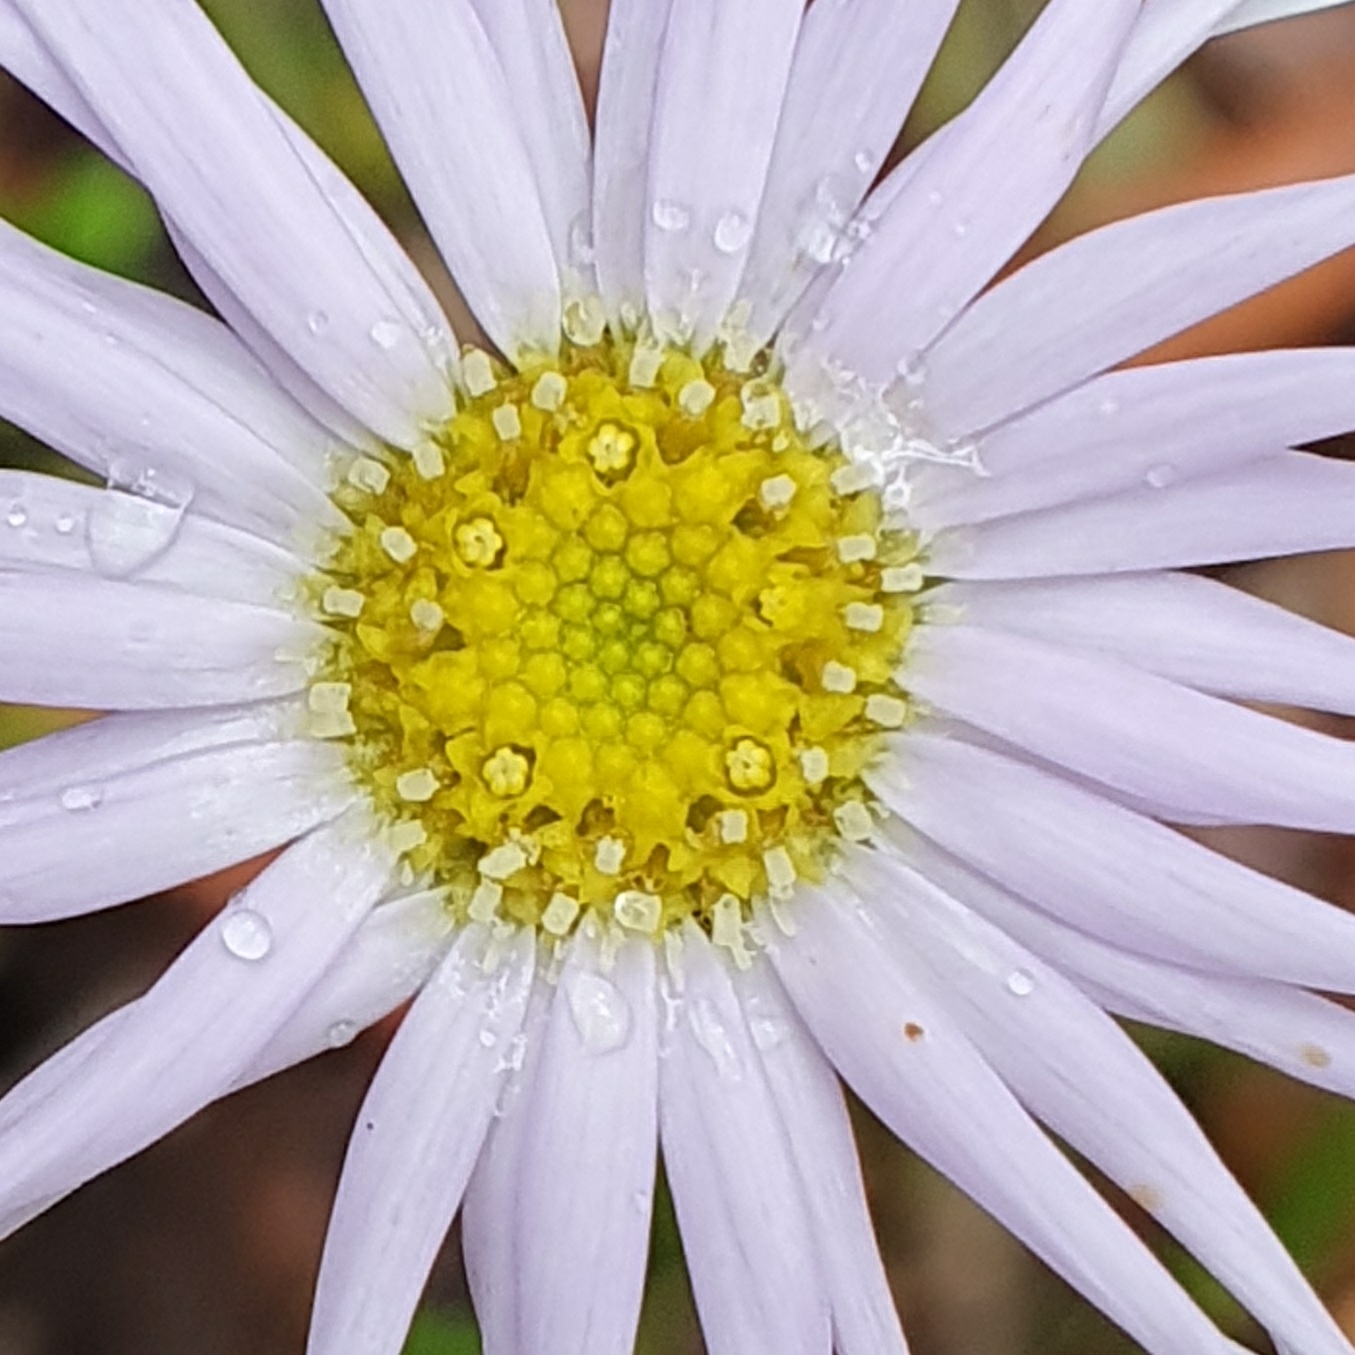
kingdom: Plantae
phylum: Tracheophyta
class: Magnoliopsida
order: Asterales
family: Asteraceae
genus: Brachyscome
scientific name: Brachyscome spathulata
